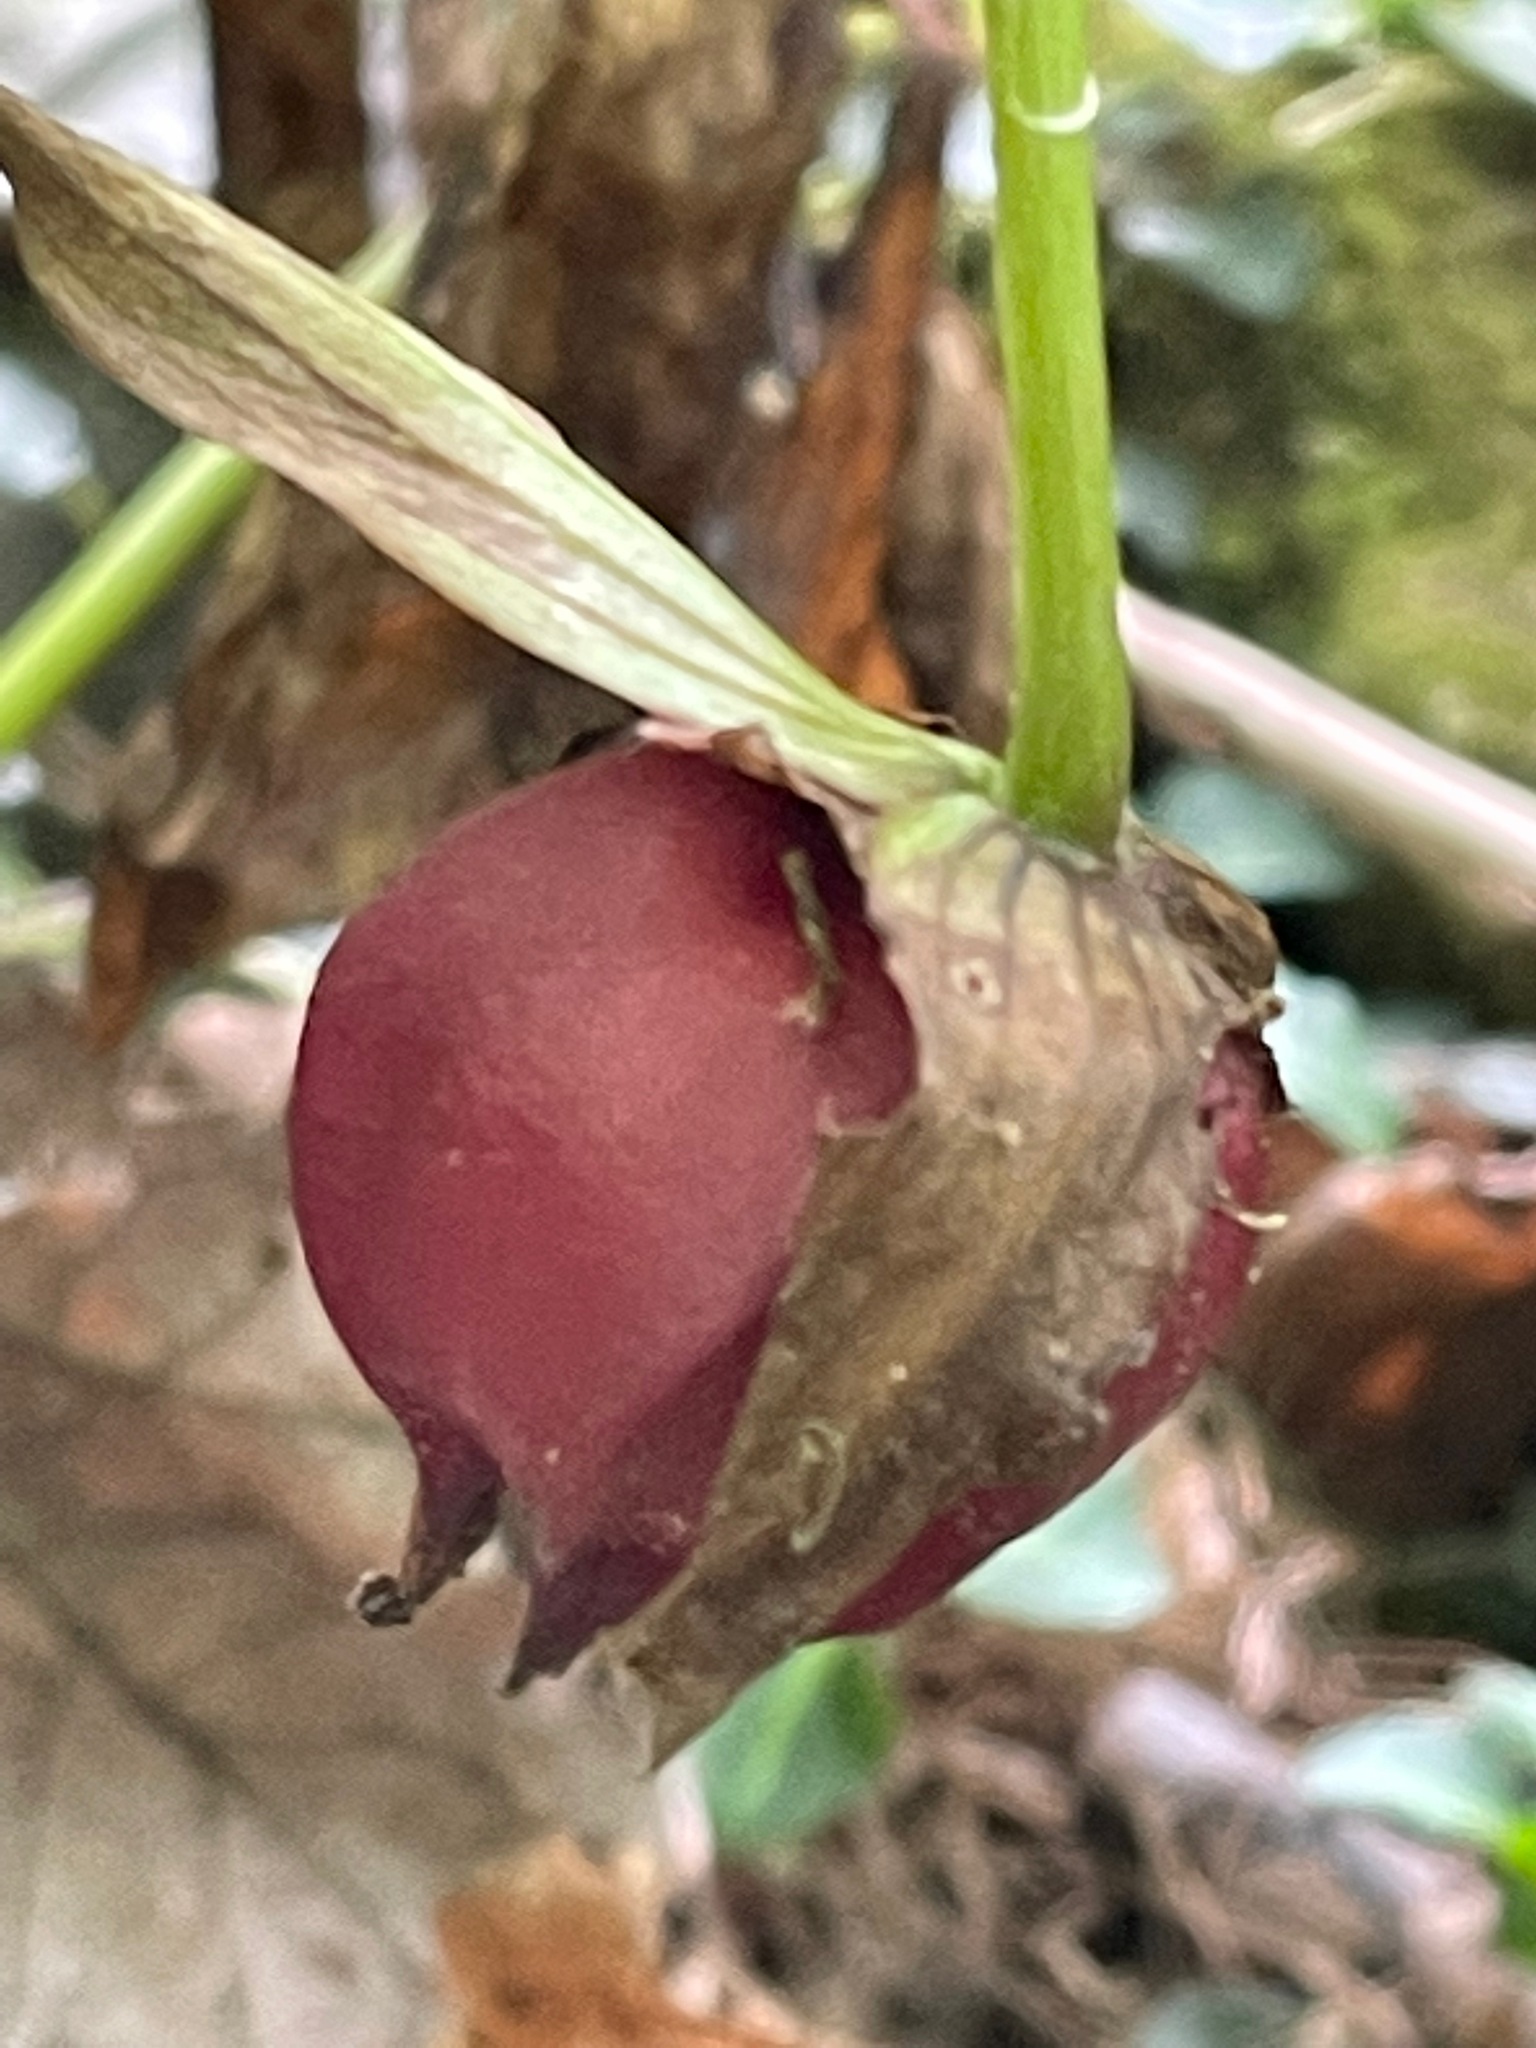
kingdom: Plantae
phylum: Tracheophyta
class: Liliopsida
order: Liliales
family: Melanthiaceae
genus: Trillium
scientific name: Trillium erectum
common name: Purple trillium
